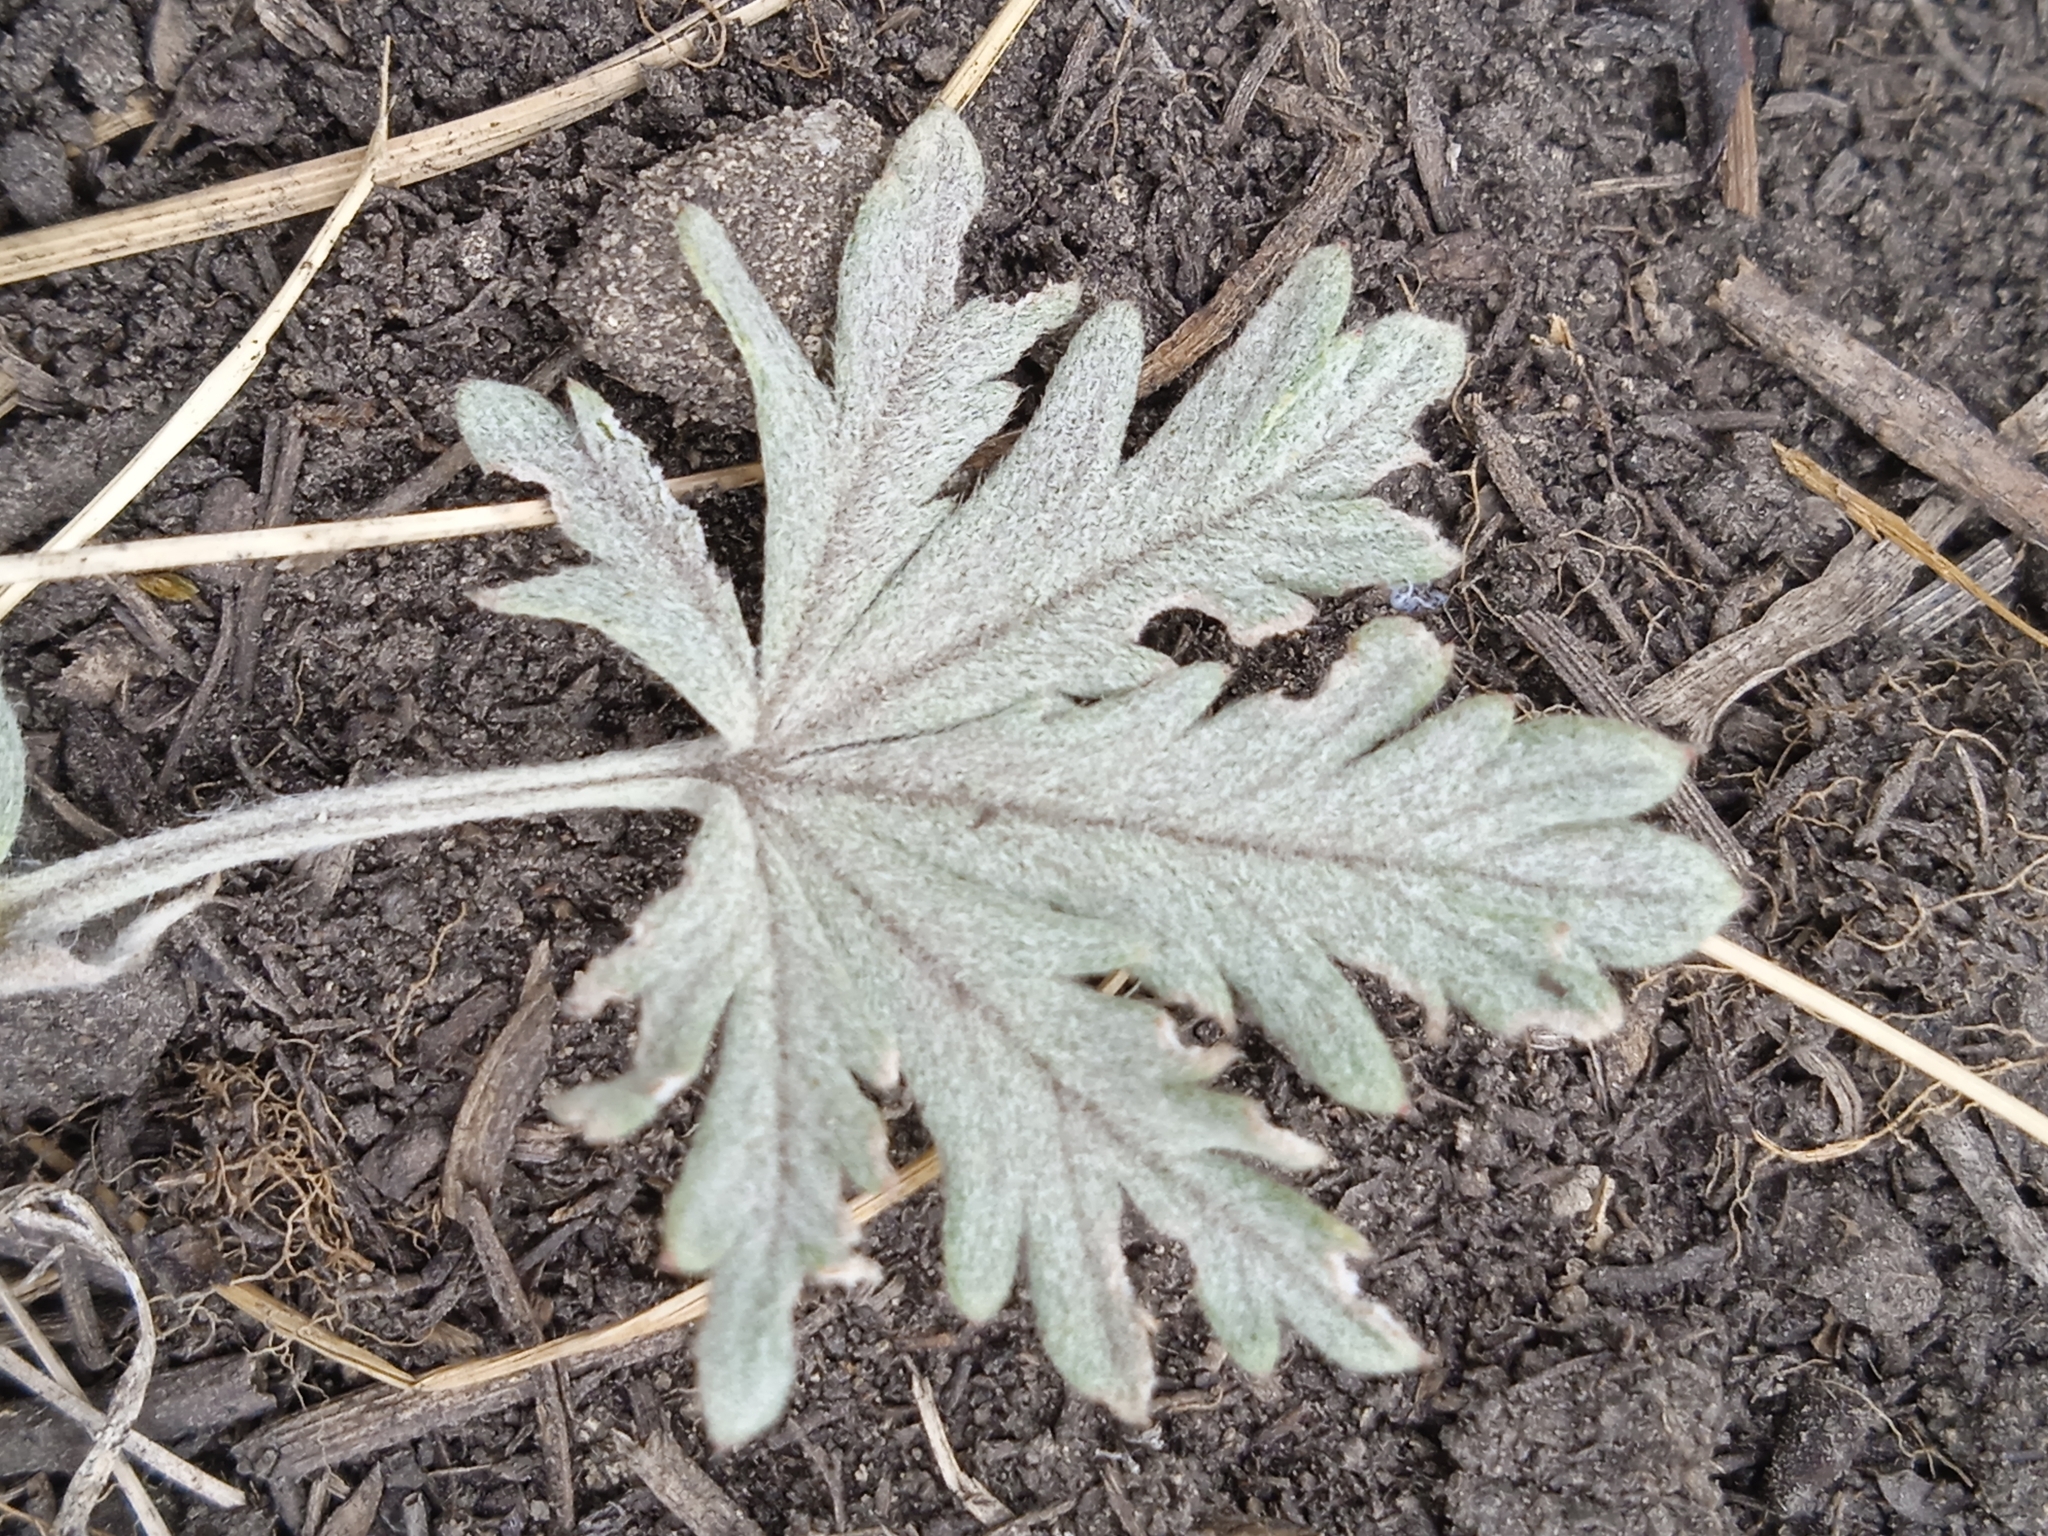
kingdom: Plantae
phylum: Tracheophyta
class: Magnoliopsida
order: Rosales
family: Rosaceae
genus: Potentilla
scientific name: Potentilla argentea
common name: Hoary cinquefoil
